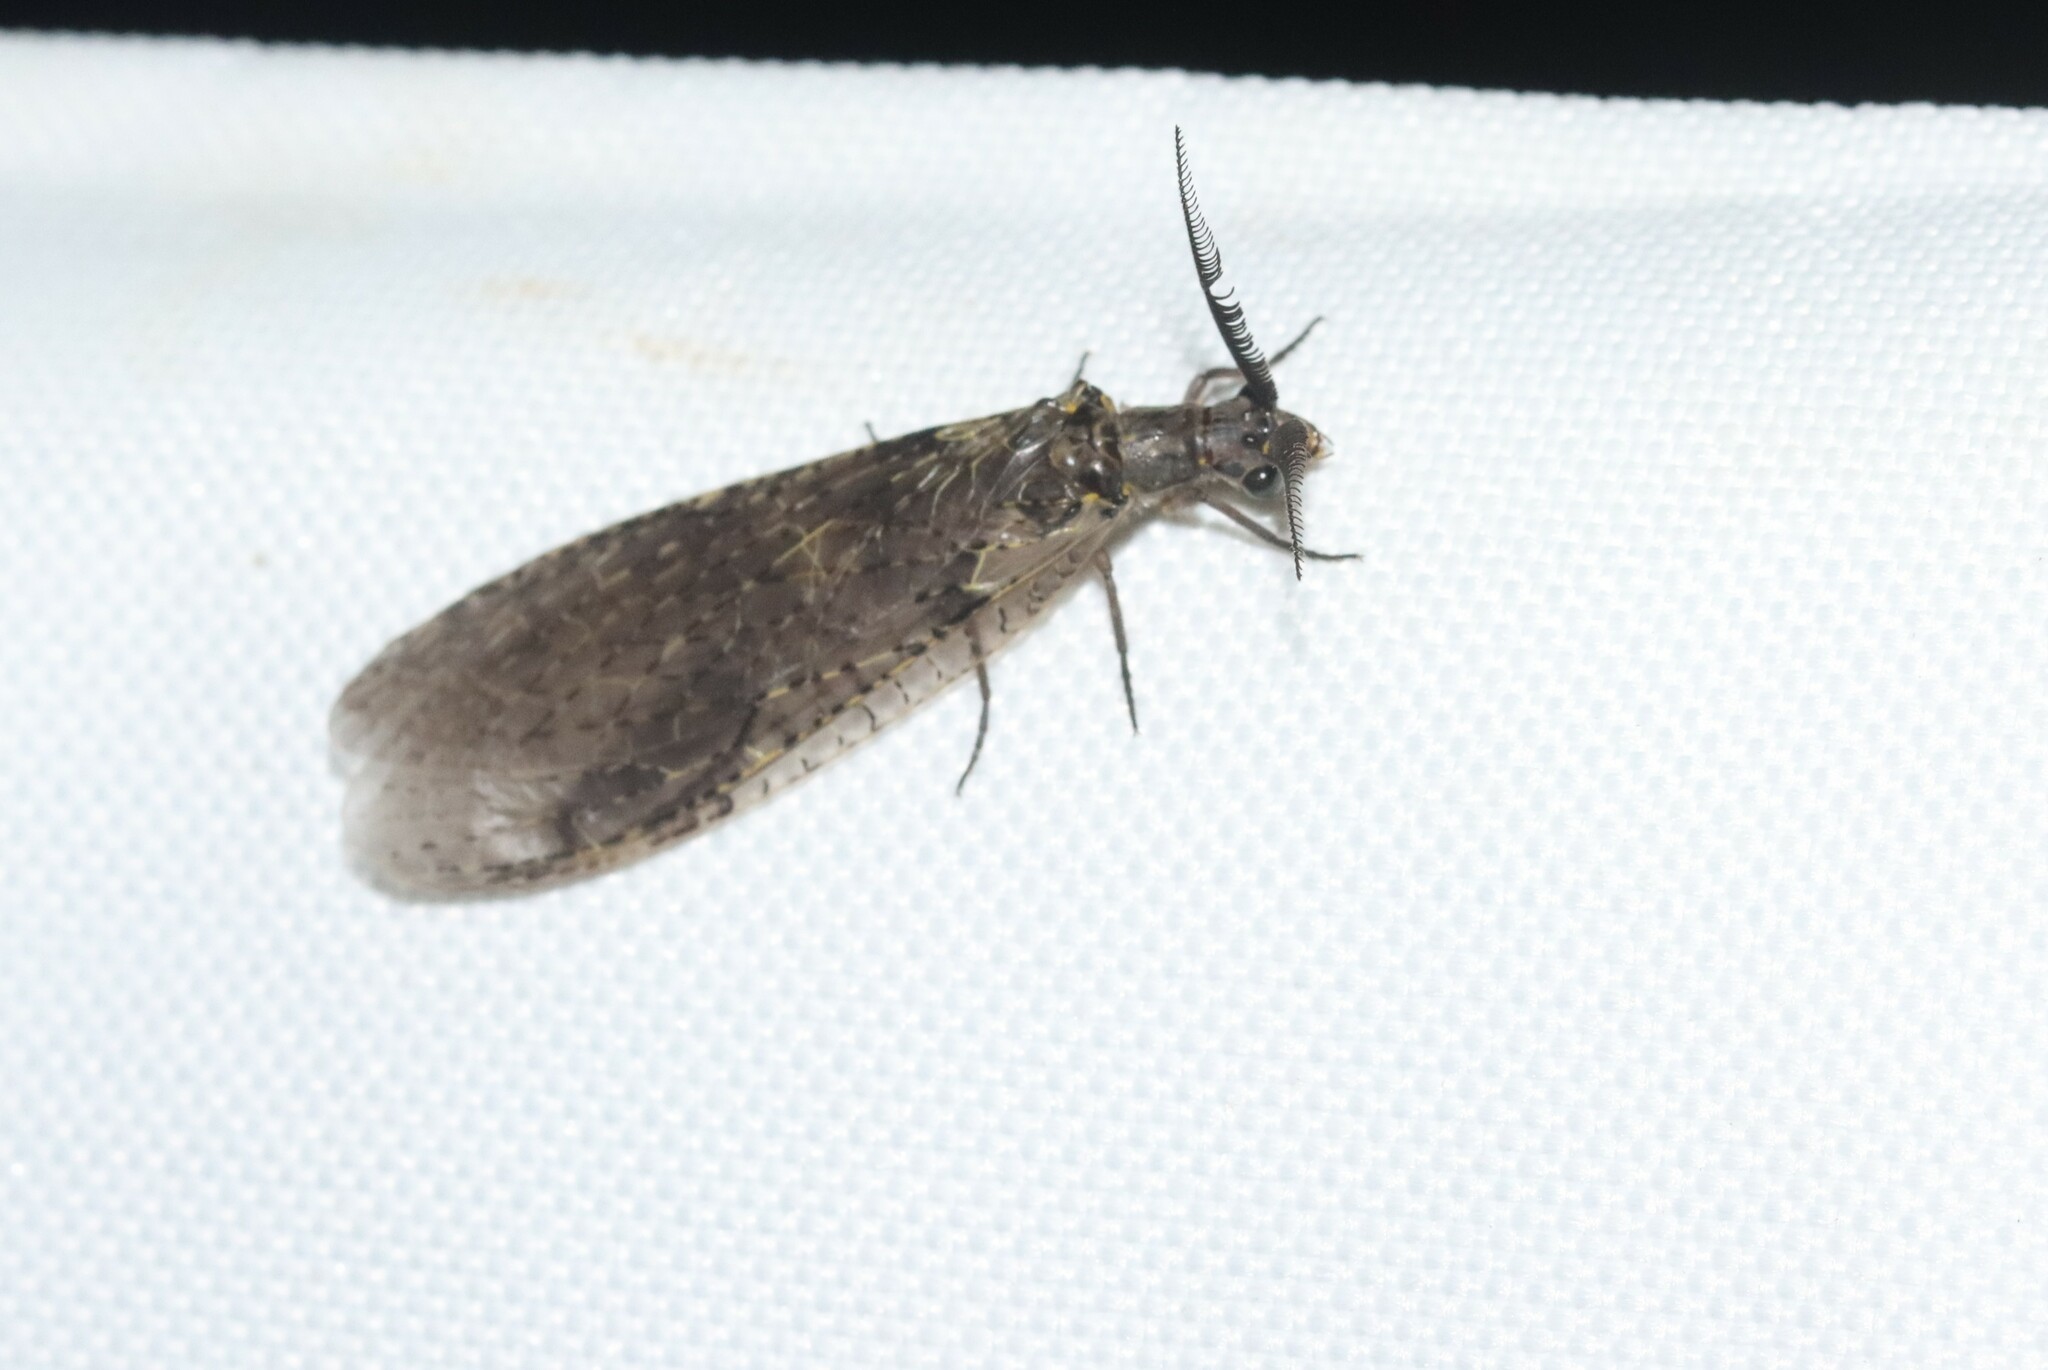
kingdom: Animalia
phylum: Arthropoda
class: Insecta
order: Megaloptera
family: Corydalidae
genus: Chauliodes
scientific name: Chauliodes rastricornis
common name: Spring fishfly
